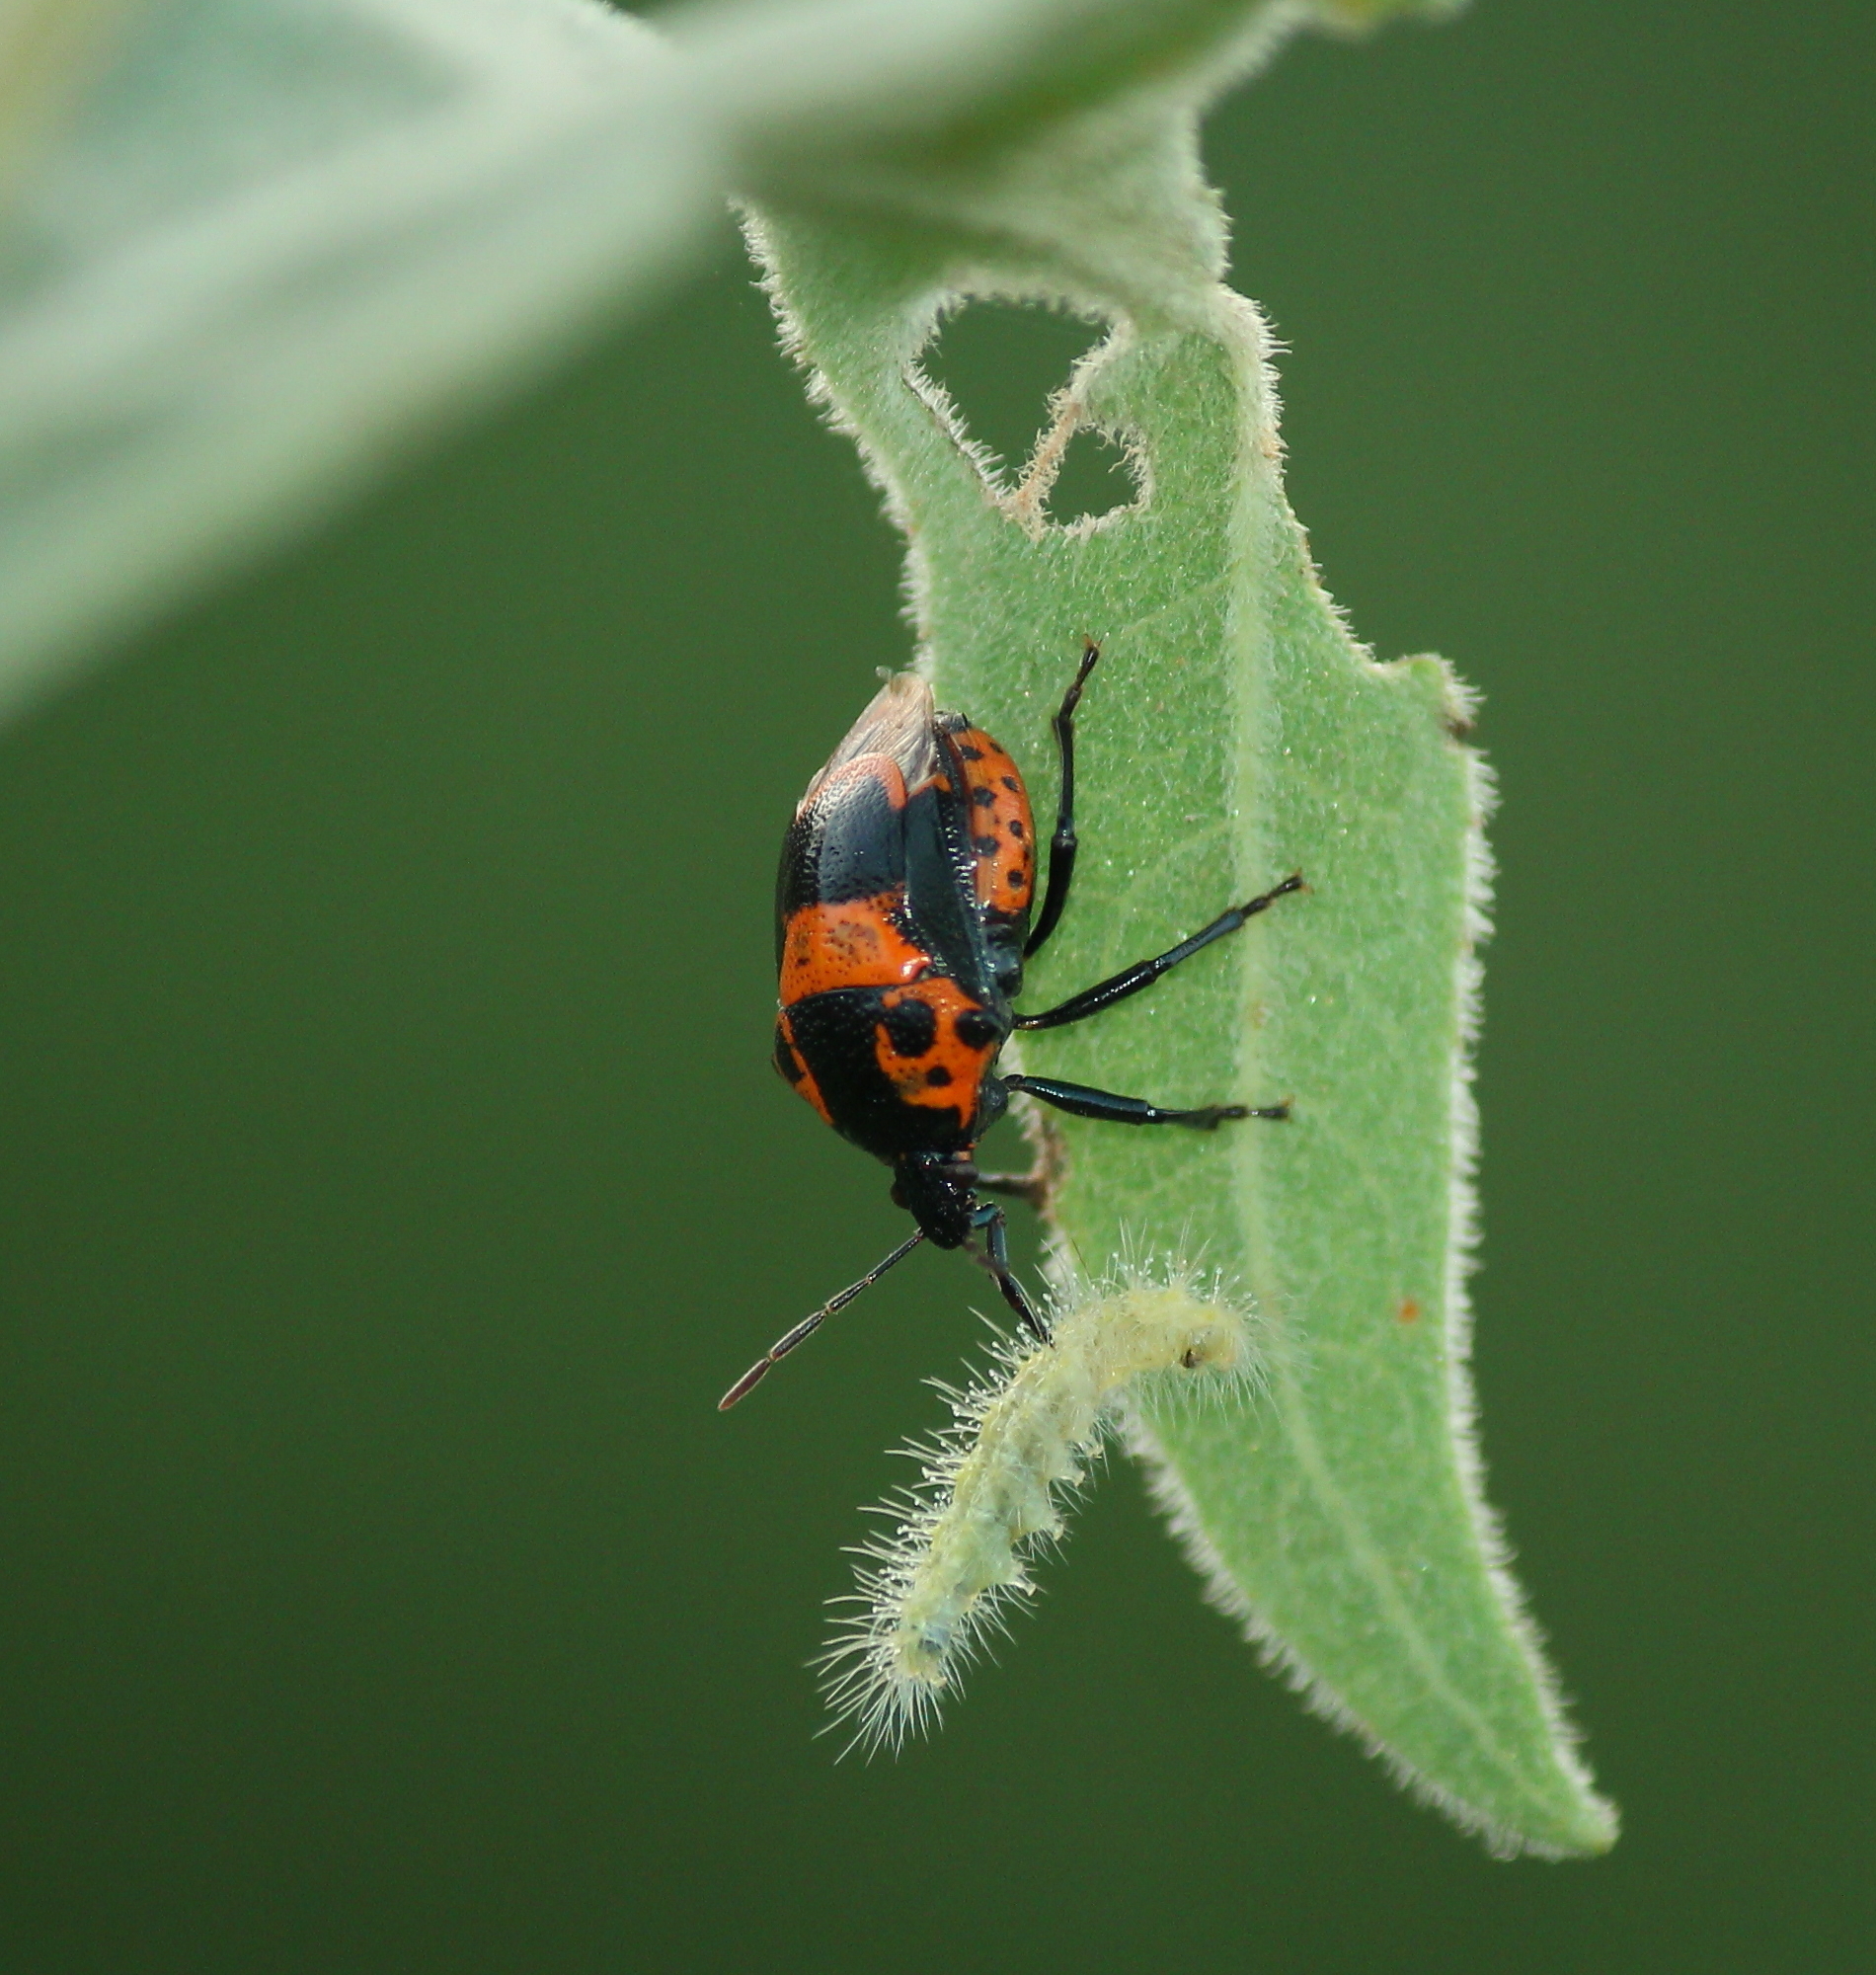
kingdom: Animalia
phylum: Arthropoda
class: Insecta
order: Hemiptera
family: Pentatomidae
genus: Stiretrus
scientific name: Stiretrus anchorago
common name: Anchor stink bug
